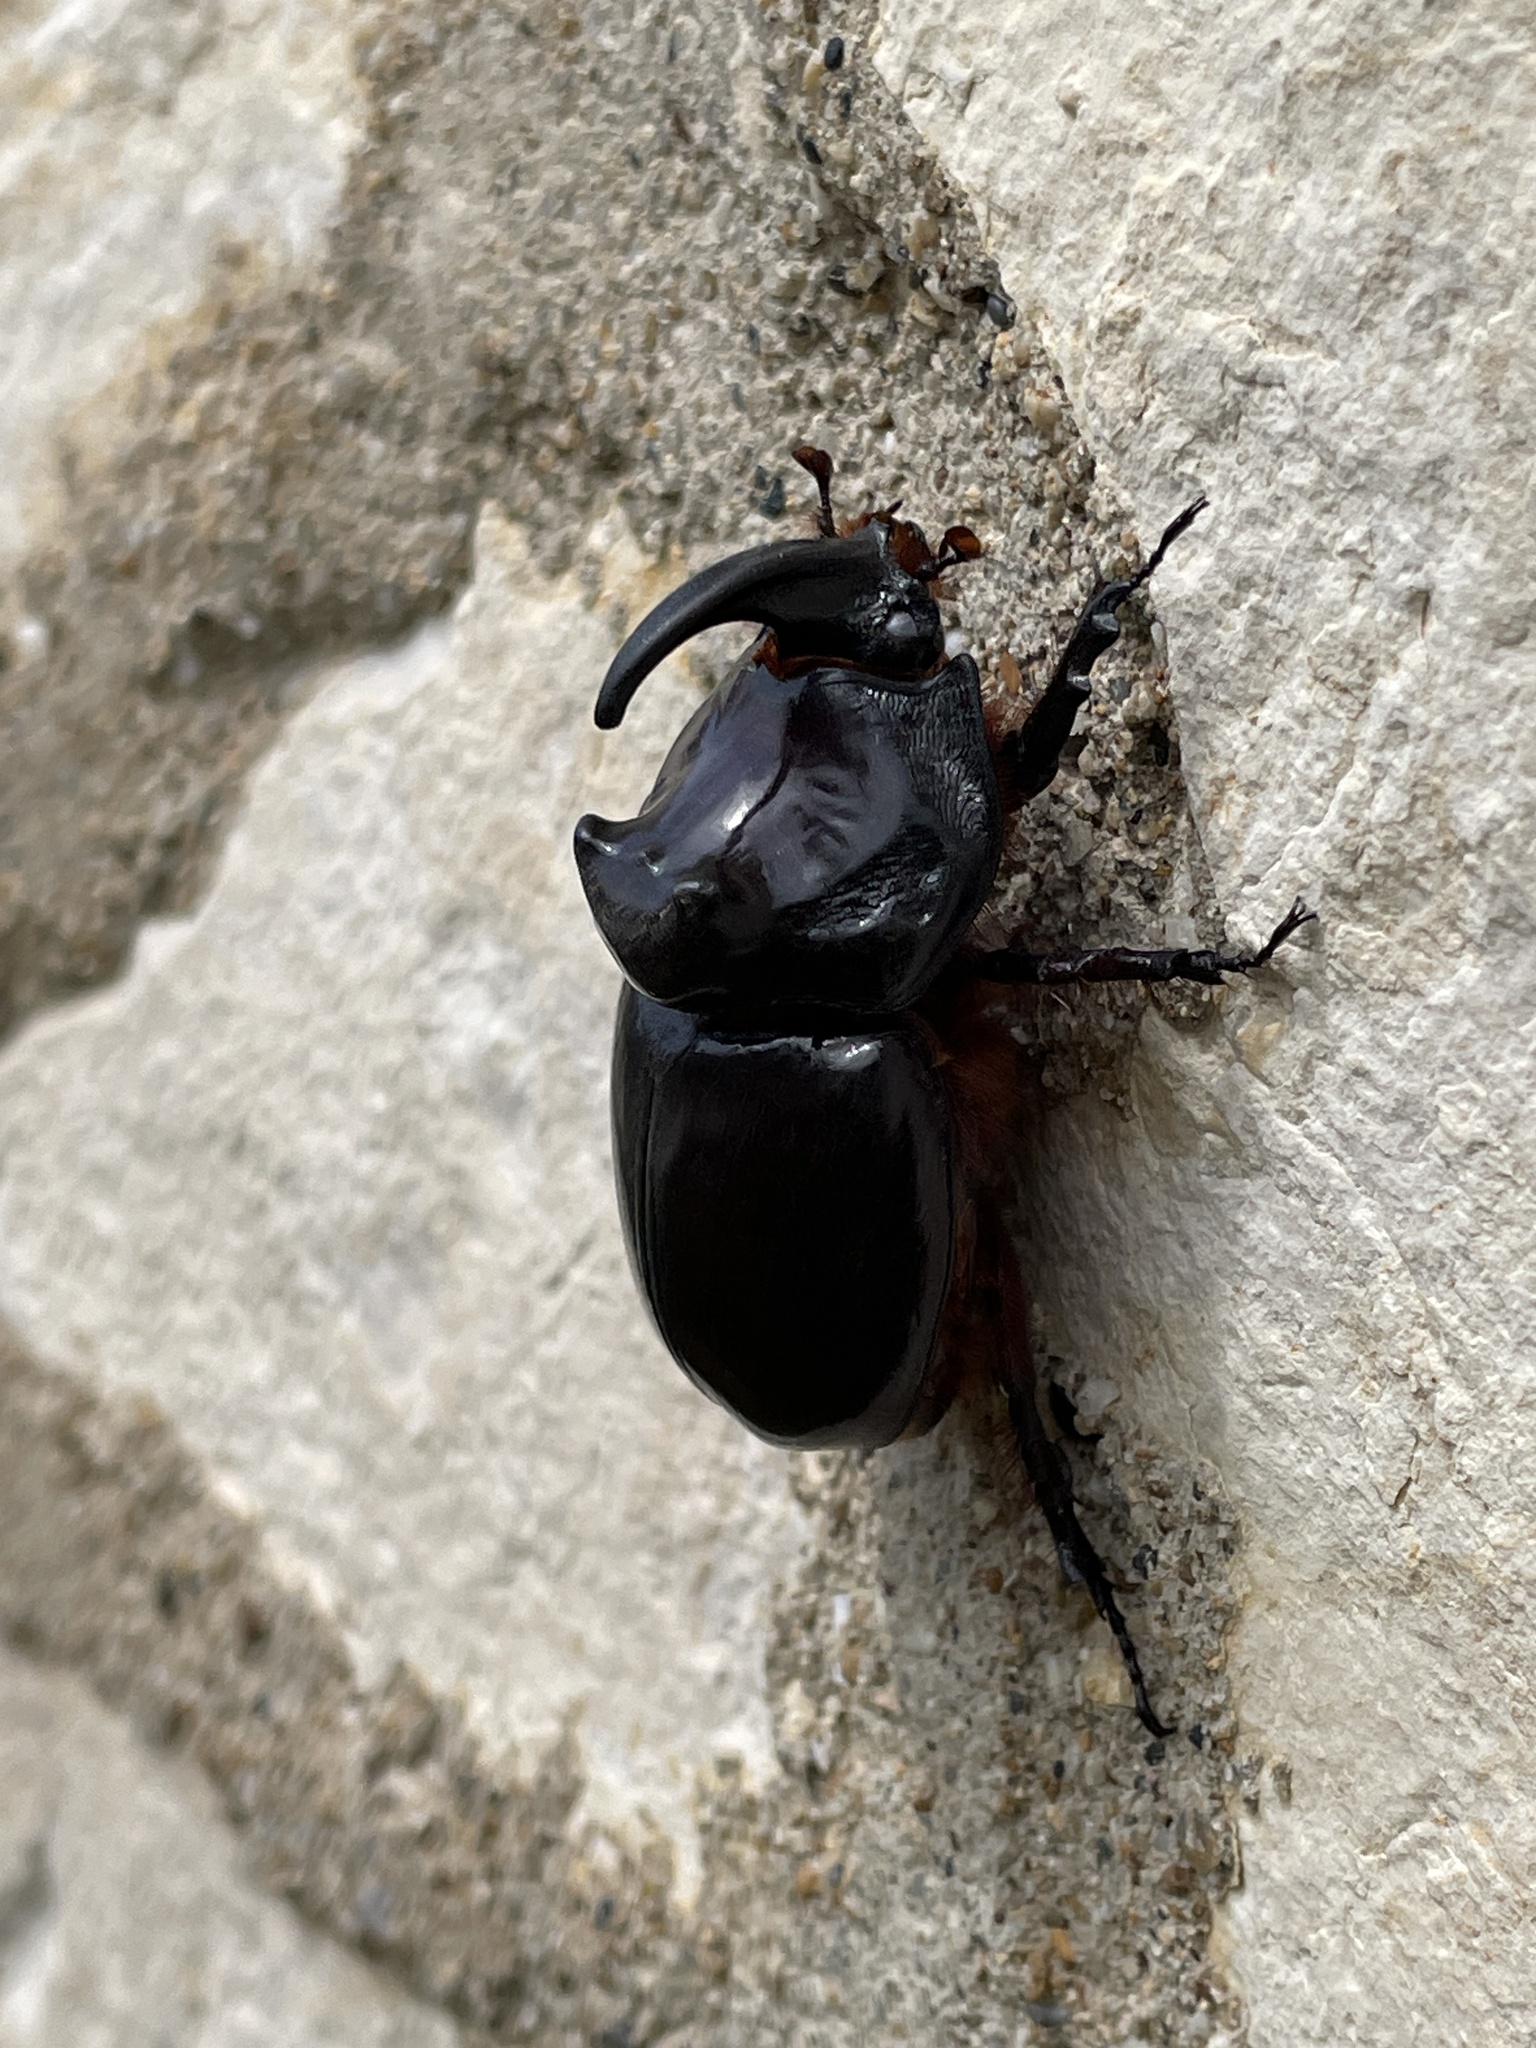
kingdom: Animalia
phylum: Arthropoda
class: Insecta
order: Coleoptera
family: Scarabaeidae
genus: Oryctes
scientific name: Oryctes nasicornis
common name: European rhinoceros beetle
